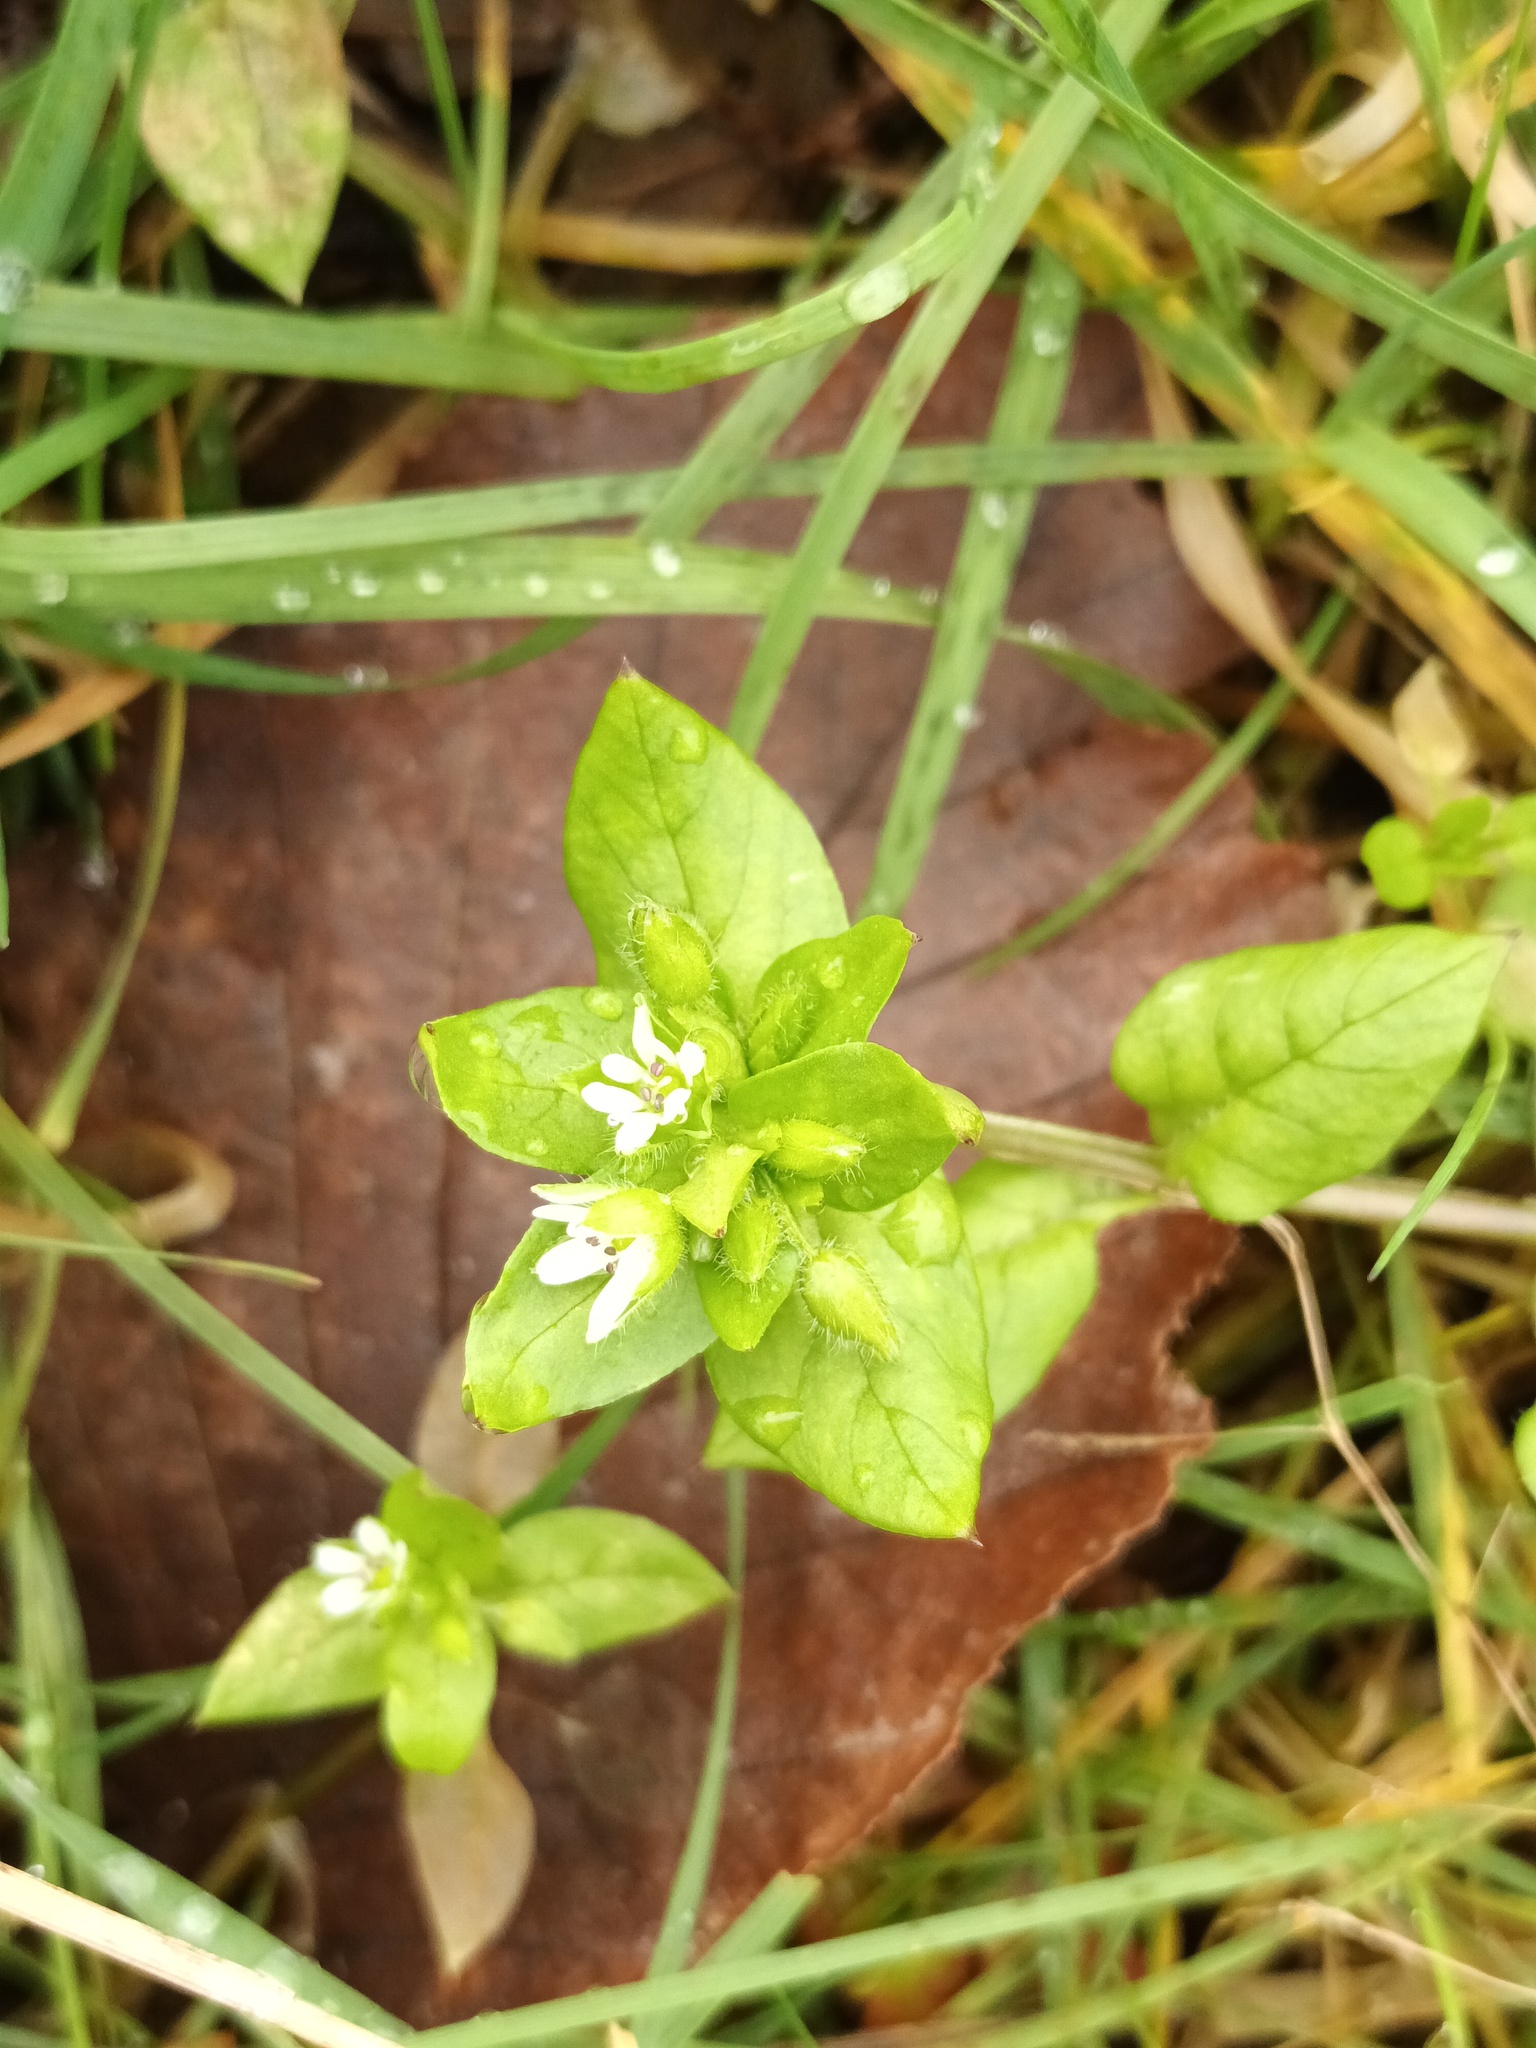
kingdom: Plantae
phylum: Tracheophyta
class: Magnoliopsida
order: Caryophyllales
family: Caryophyllaceae
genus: Stellaria
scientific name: Stellaria media
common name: Common chickweed
